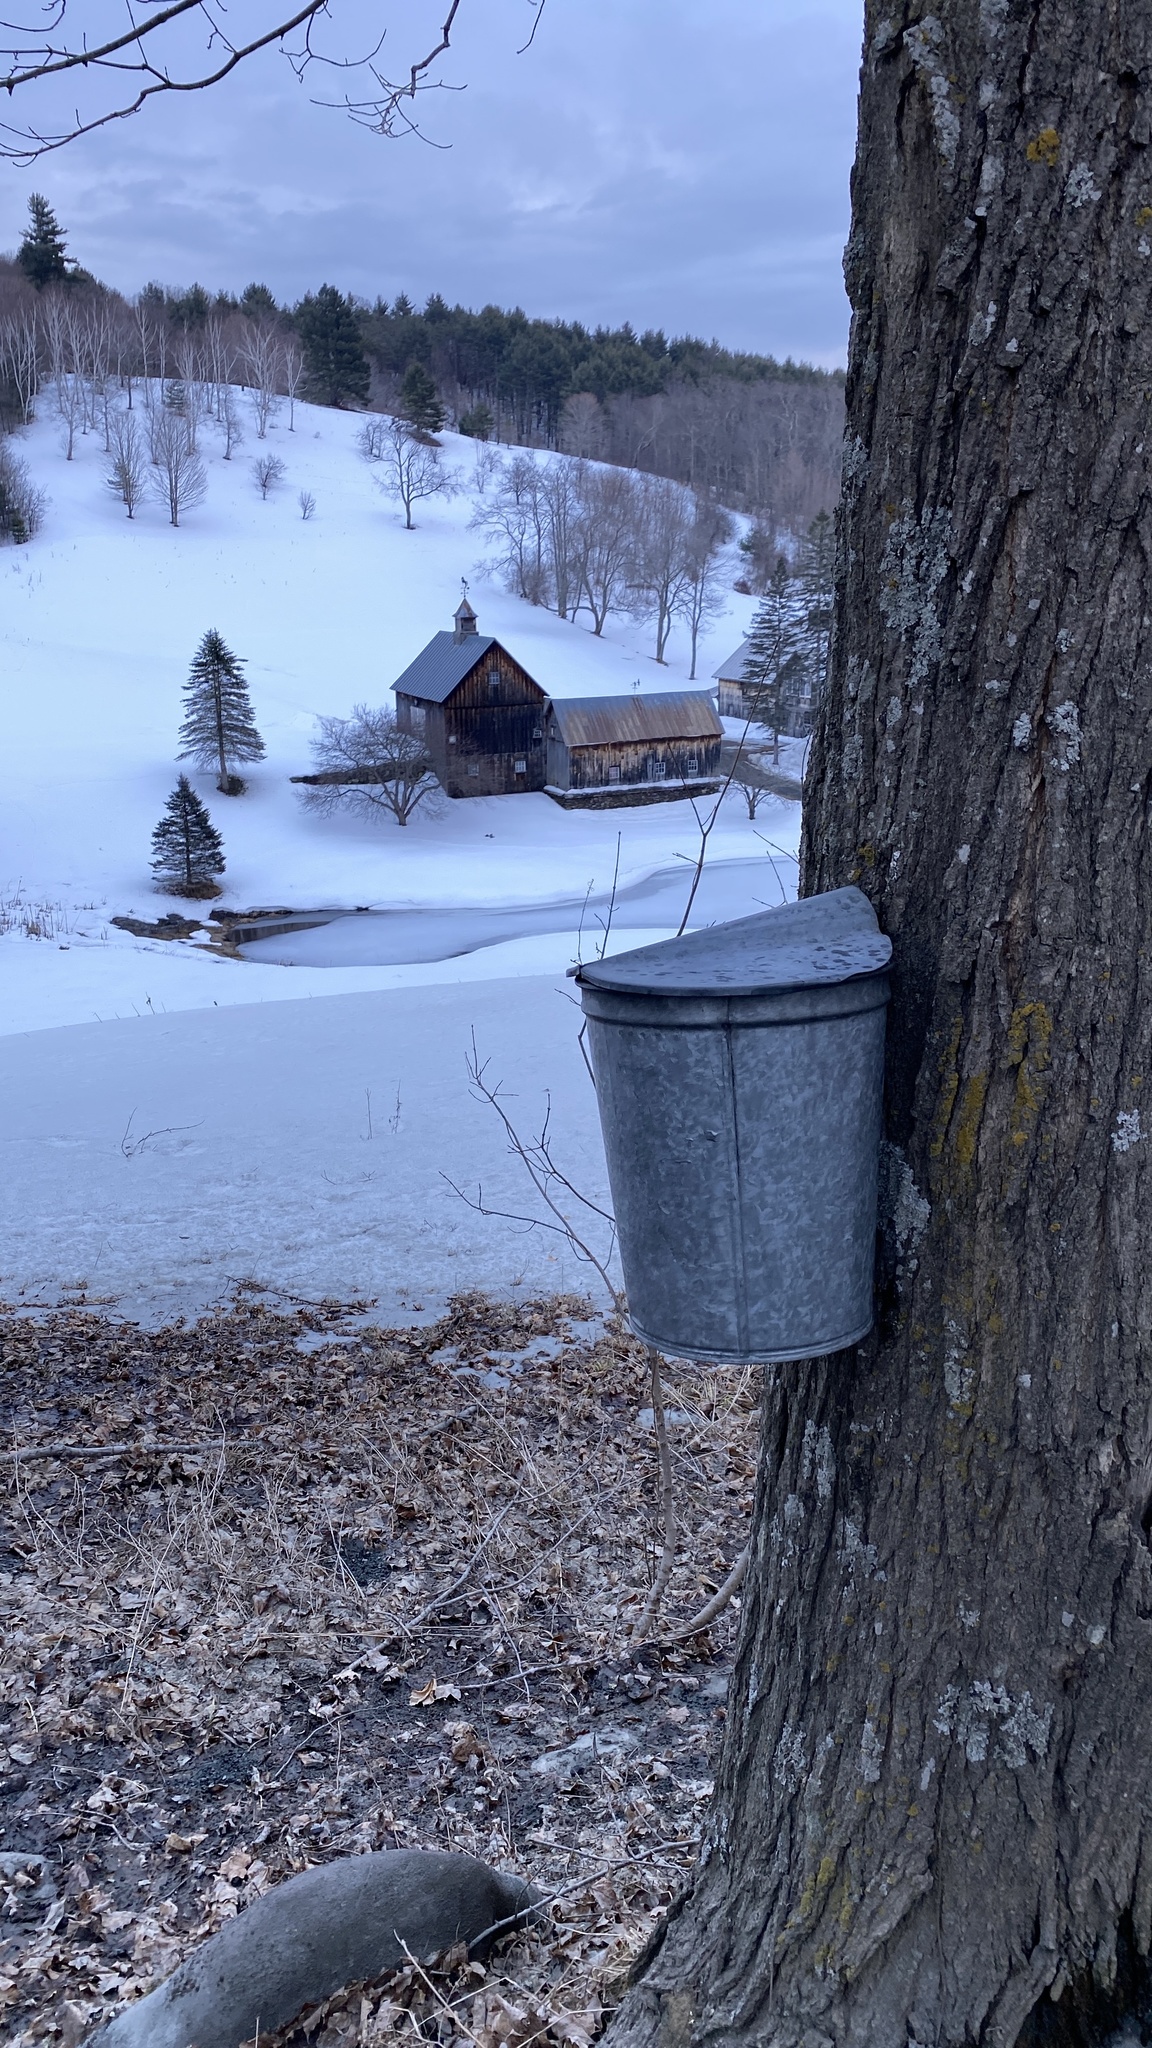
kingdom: Plantae
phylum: Tracheophyta
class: Magnoliopsida
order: Sapindales
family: Sapindaceae
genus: Acer
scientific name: Acer saccharum
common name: Sugar maple
